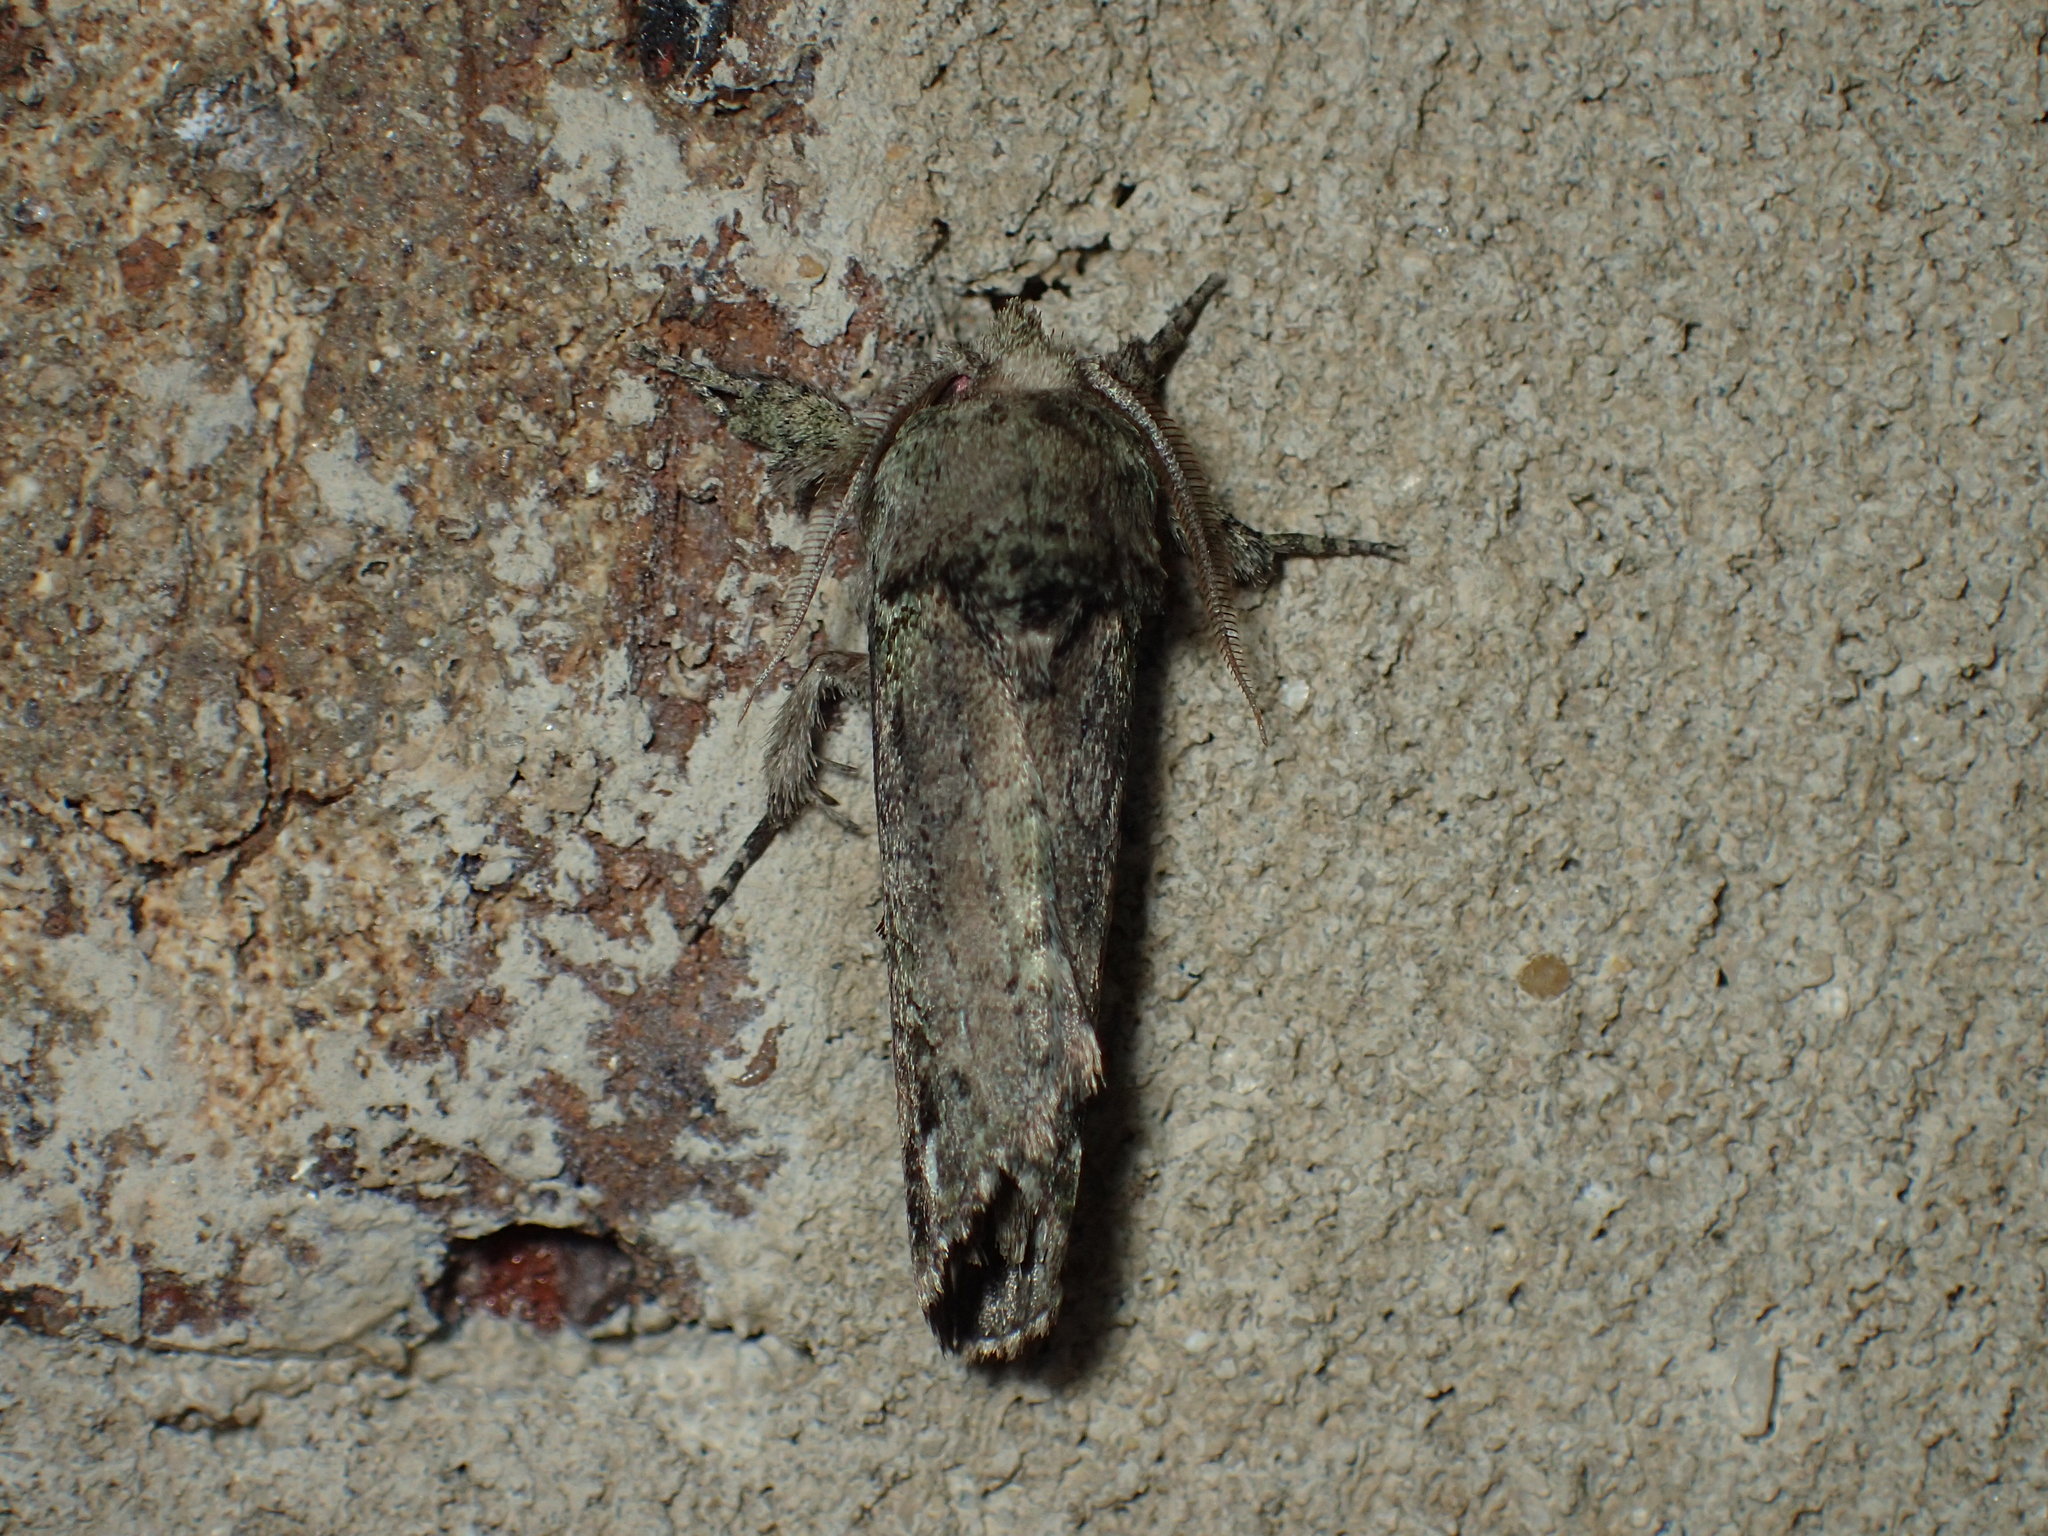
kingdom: Animalia
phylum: Arthropoda
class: Insecta
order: Lepidoptera
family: Notodontidae
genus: Schizura
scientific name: Schizura
